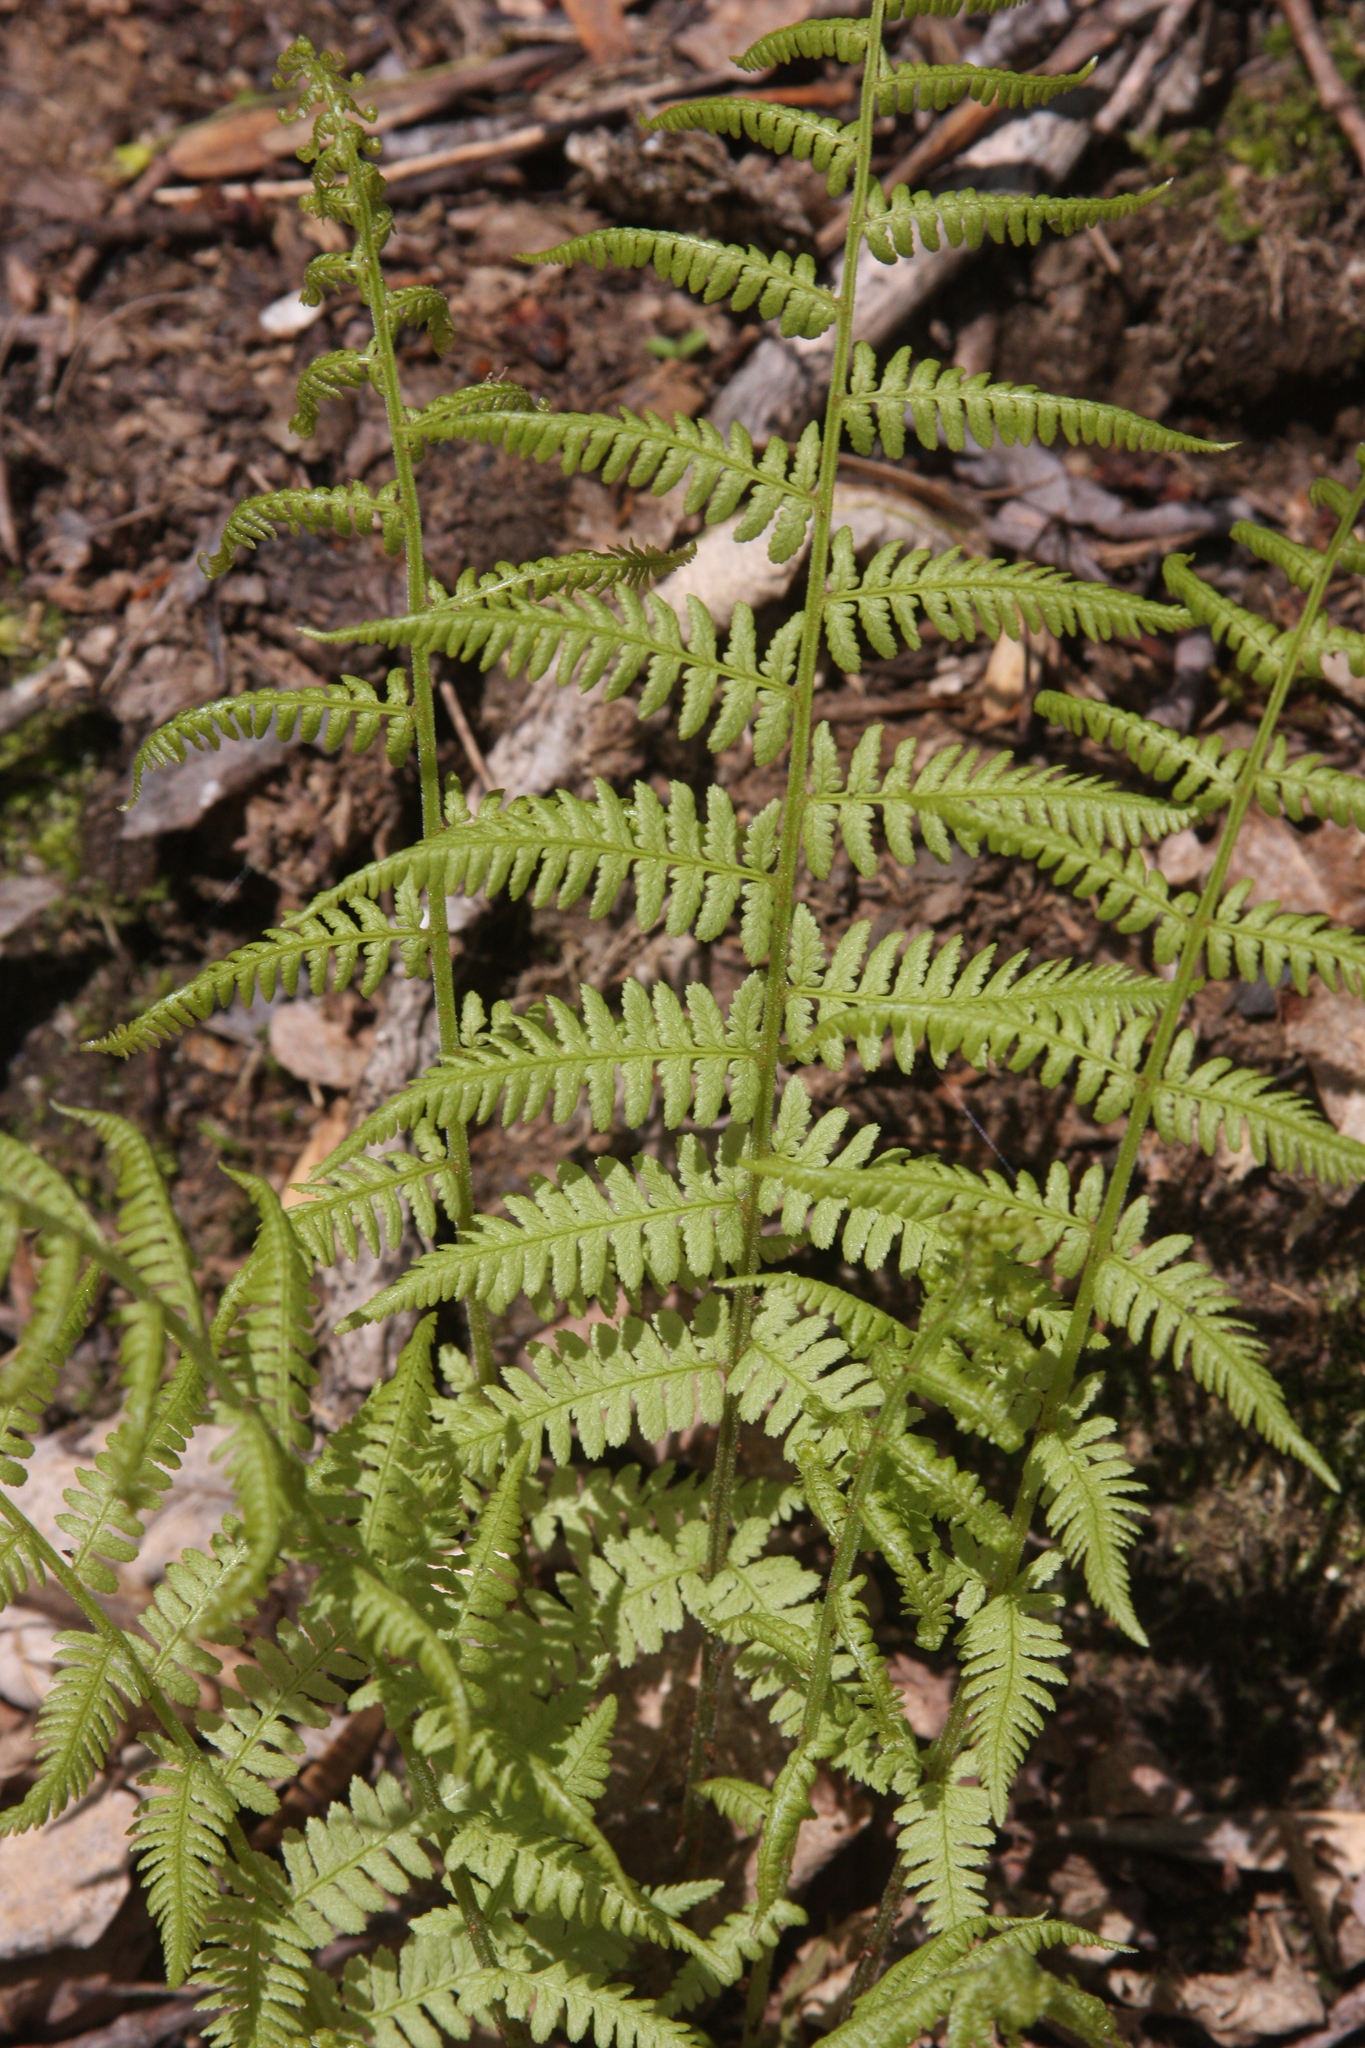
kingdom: Plantae
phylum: Tracheophyta
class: Polypodiopsida
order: Polypodiales
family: Athyriaceae
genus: Athyrium
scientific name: Athyrium angustum
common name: Northern lady fern
